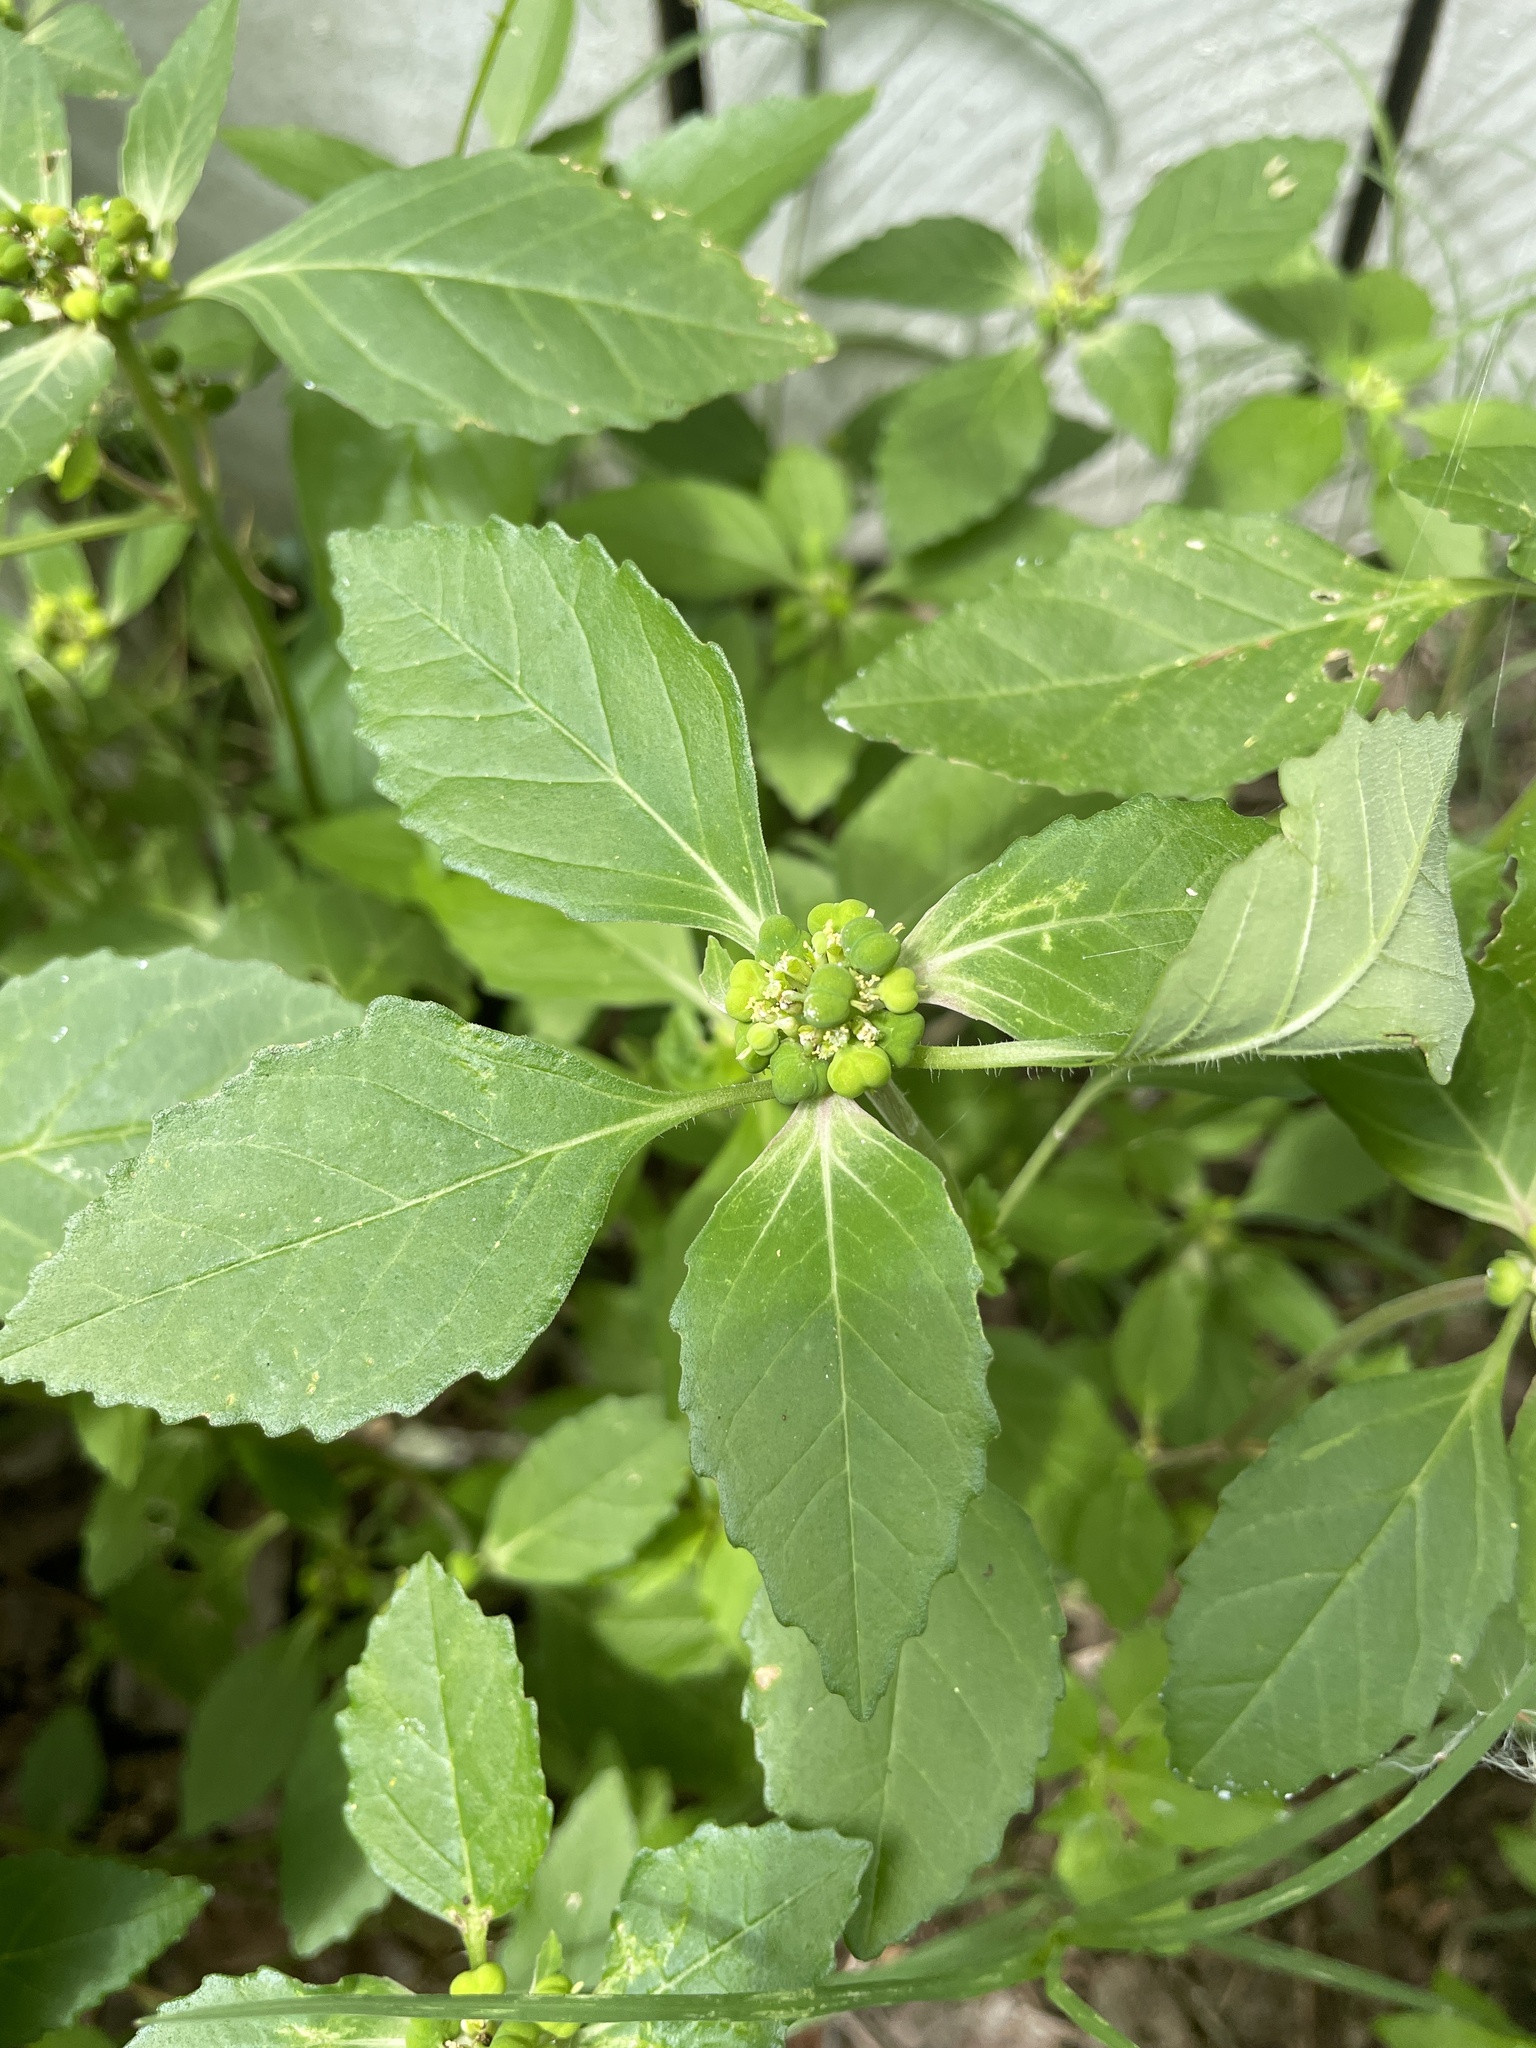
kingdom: Plantae
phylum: Tracheophyta
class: Magnoliopsida
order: Malpighiales
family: Euphorbiaceae
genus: Euphorbia
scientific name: Euphorbia dentata
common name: Dentate spurge
